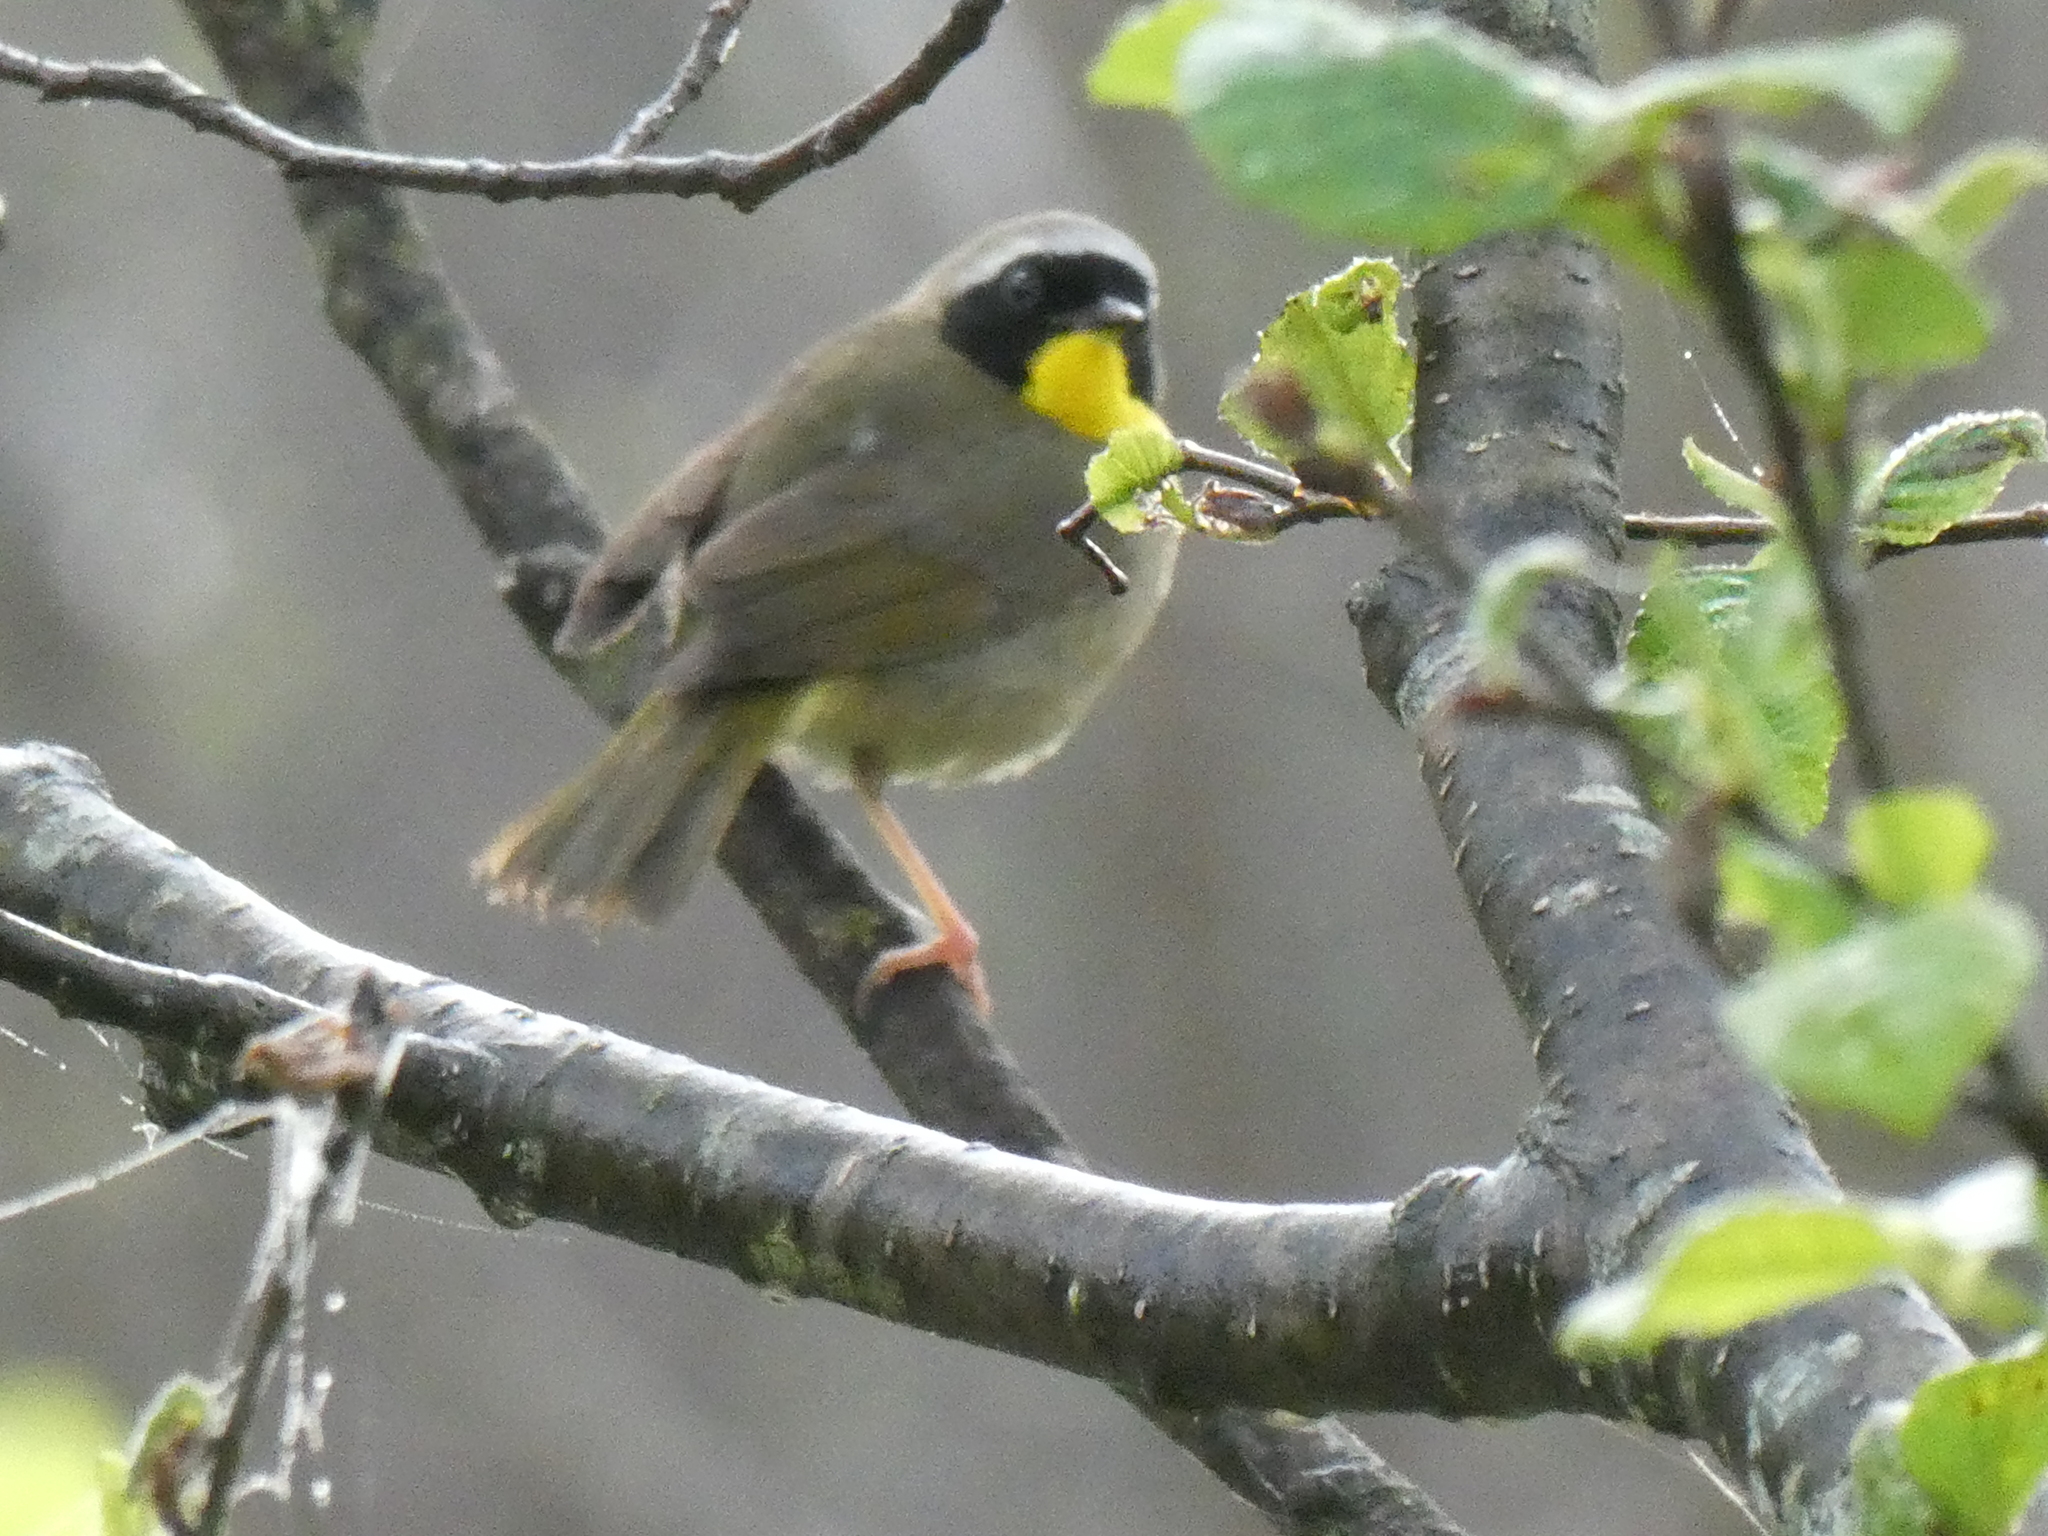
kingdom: Animalia
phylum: Chordata
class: Aves
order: Passeriformes
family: Parulidae
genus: Geothlypis
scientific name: Geothlypis trichas
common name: Common yellowthroat
